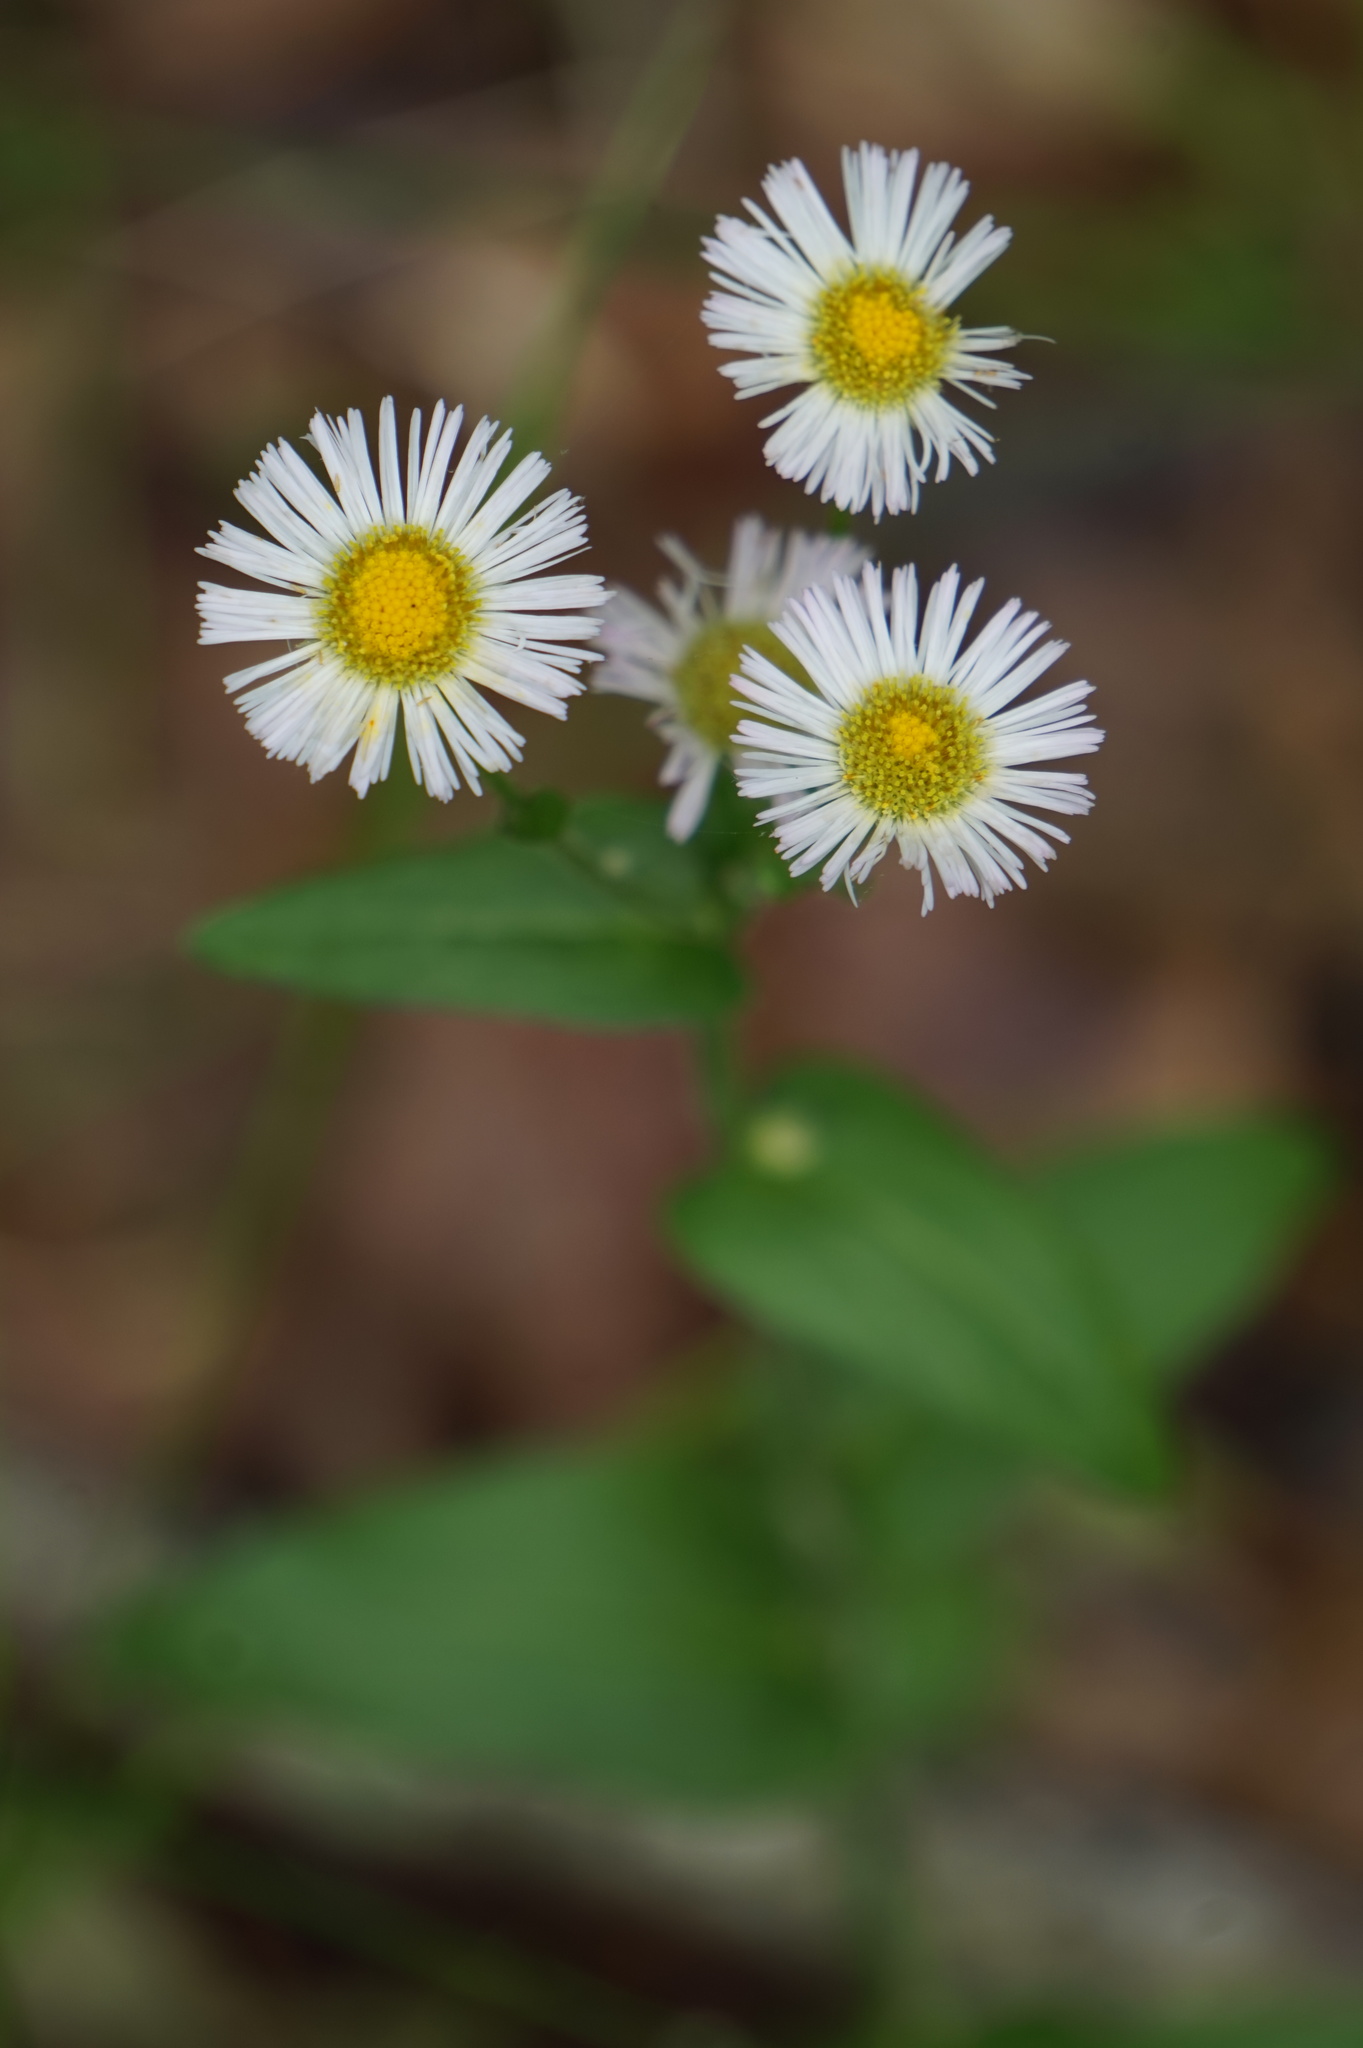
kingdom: Plantae
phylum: Tracheophyta
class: Magnoliopsida
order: Asterales
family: Asteraceae
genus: Erigeron
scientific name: Erigeron philadelphicus
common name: Robin's-plantain
